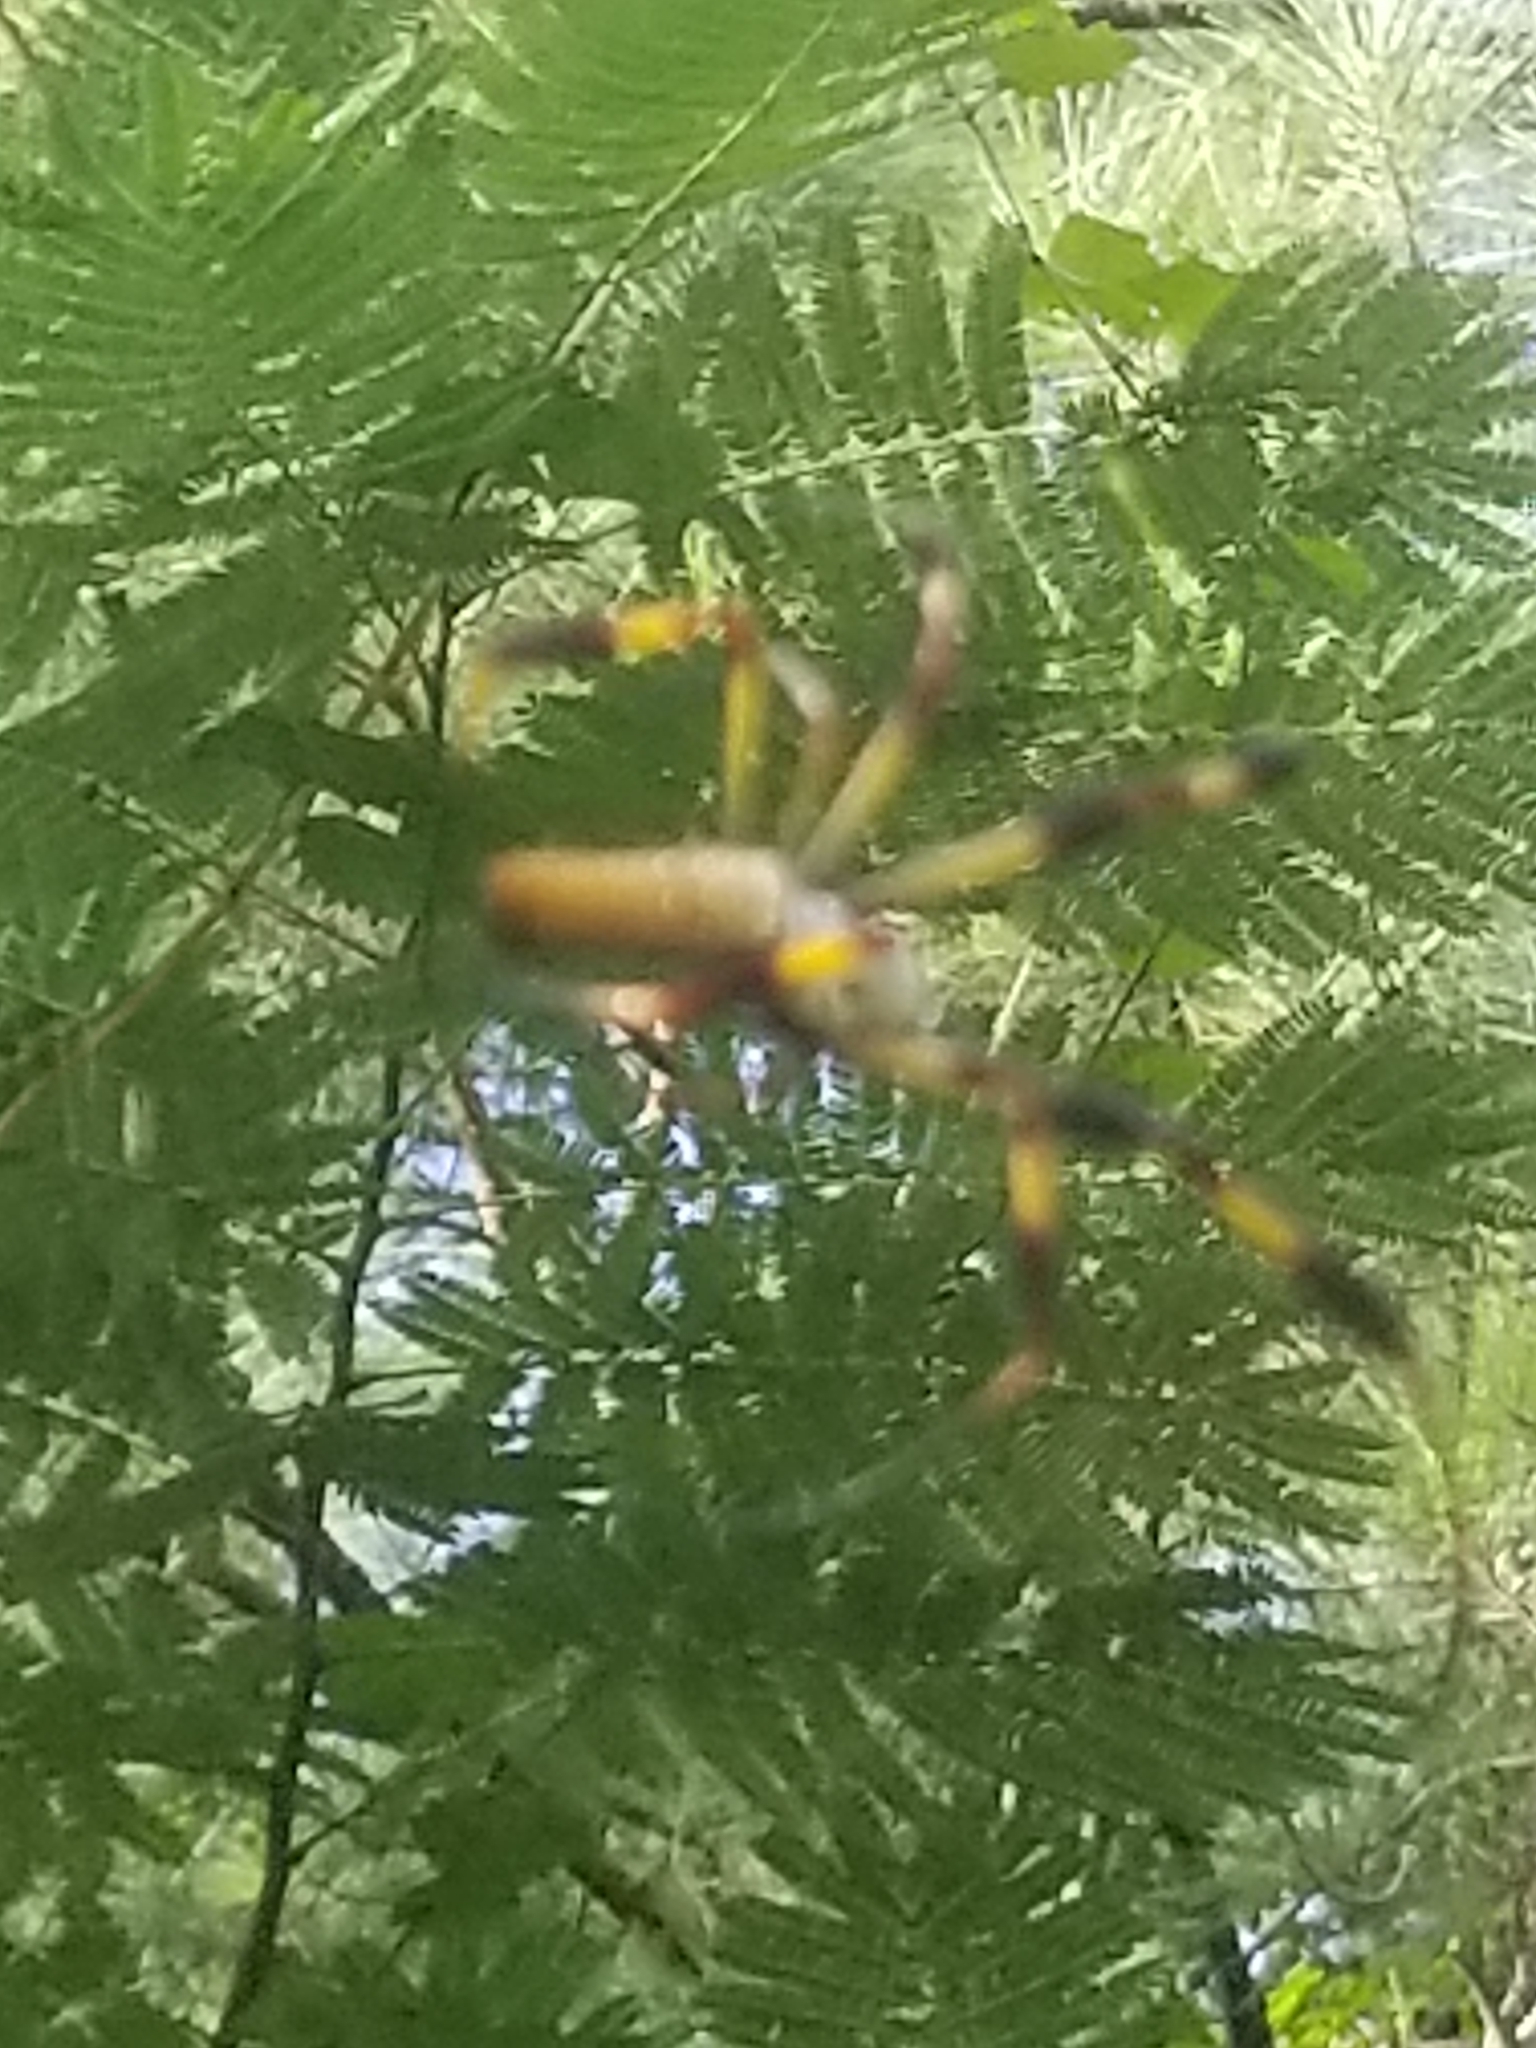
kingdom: Animalia
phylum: Arthropoda
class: Arachnida
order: Araneae
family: Araneidae
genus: Trichonephila
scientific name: Trichonephila clavipes
